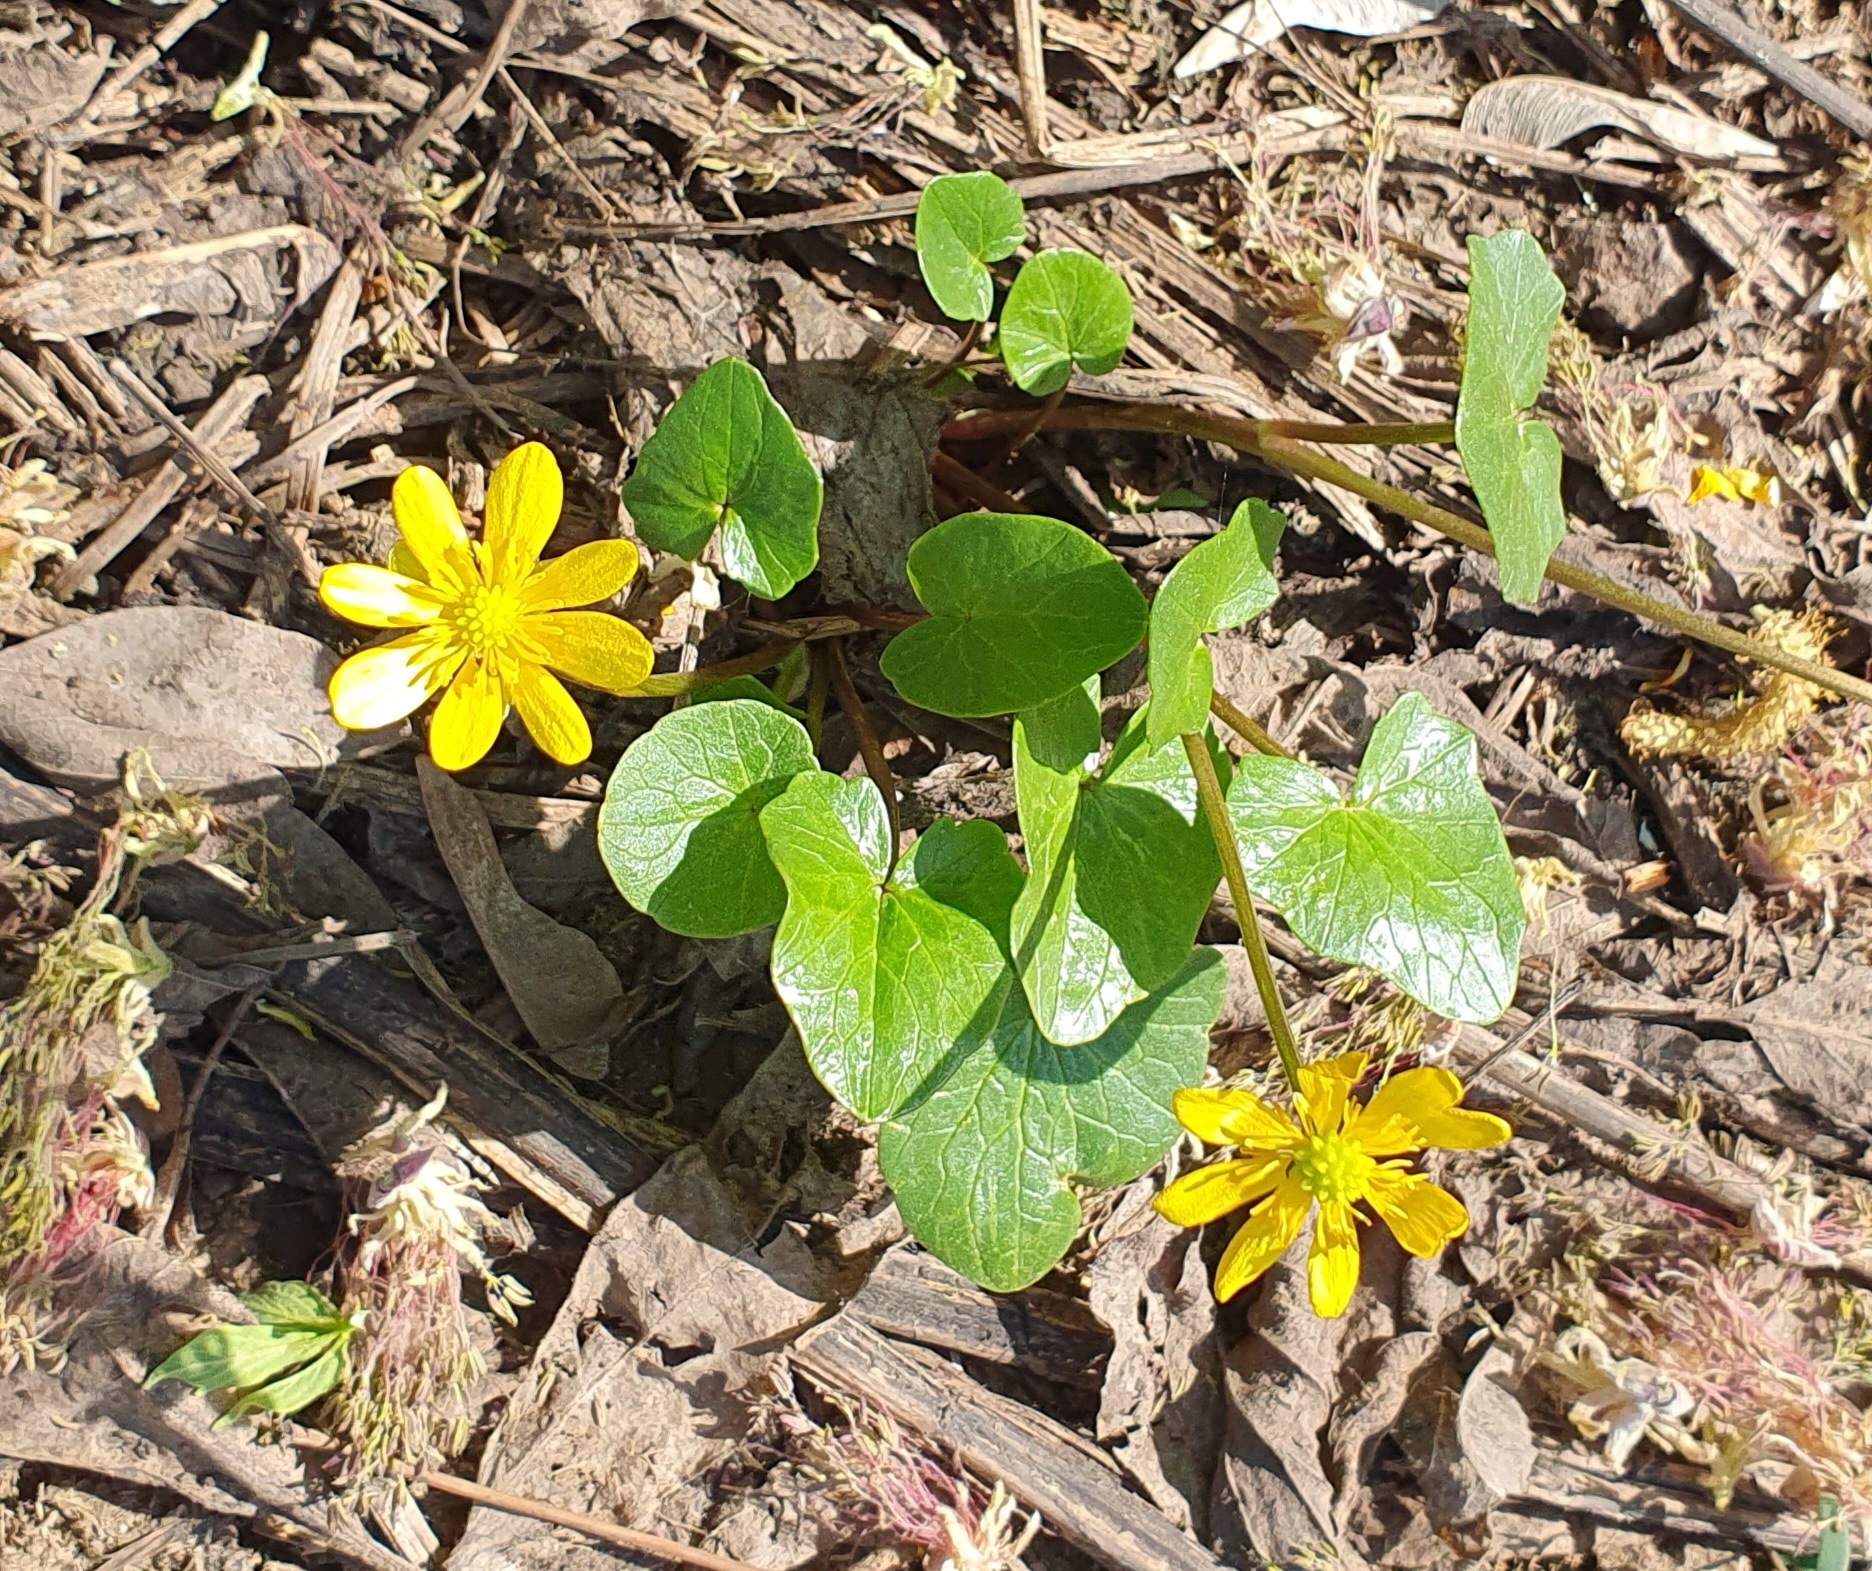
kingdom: Plantae
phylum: Tracheophyta
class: Magnoliopsida
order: Ranunculales
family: Ranunculaceae
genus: Ficaria
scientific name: Ficaria verna
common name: Lesser celandine
